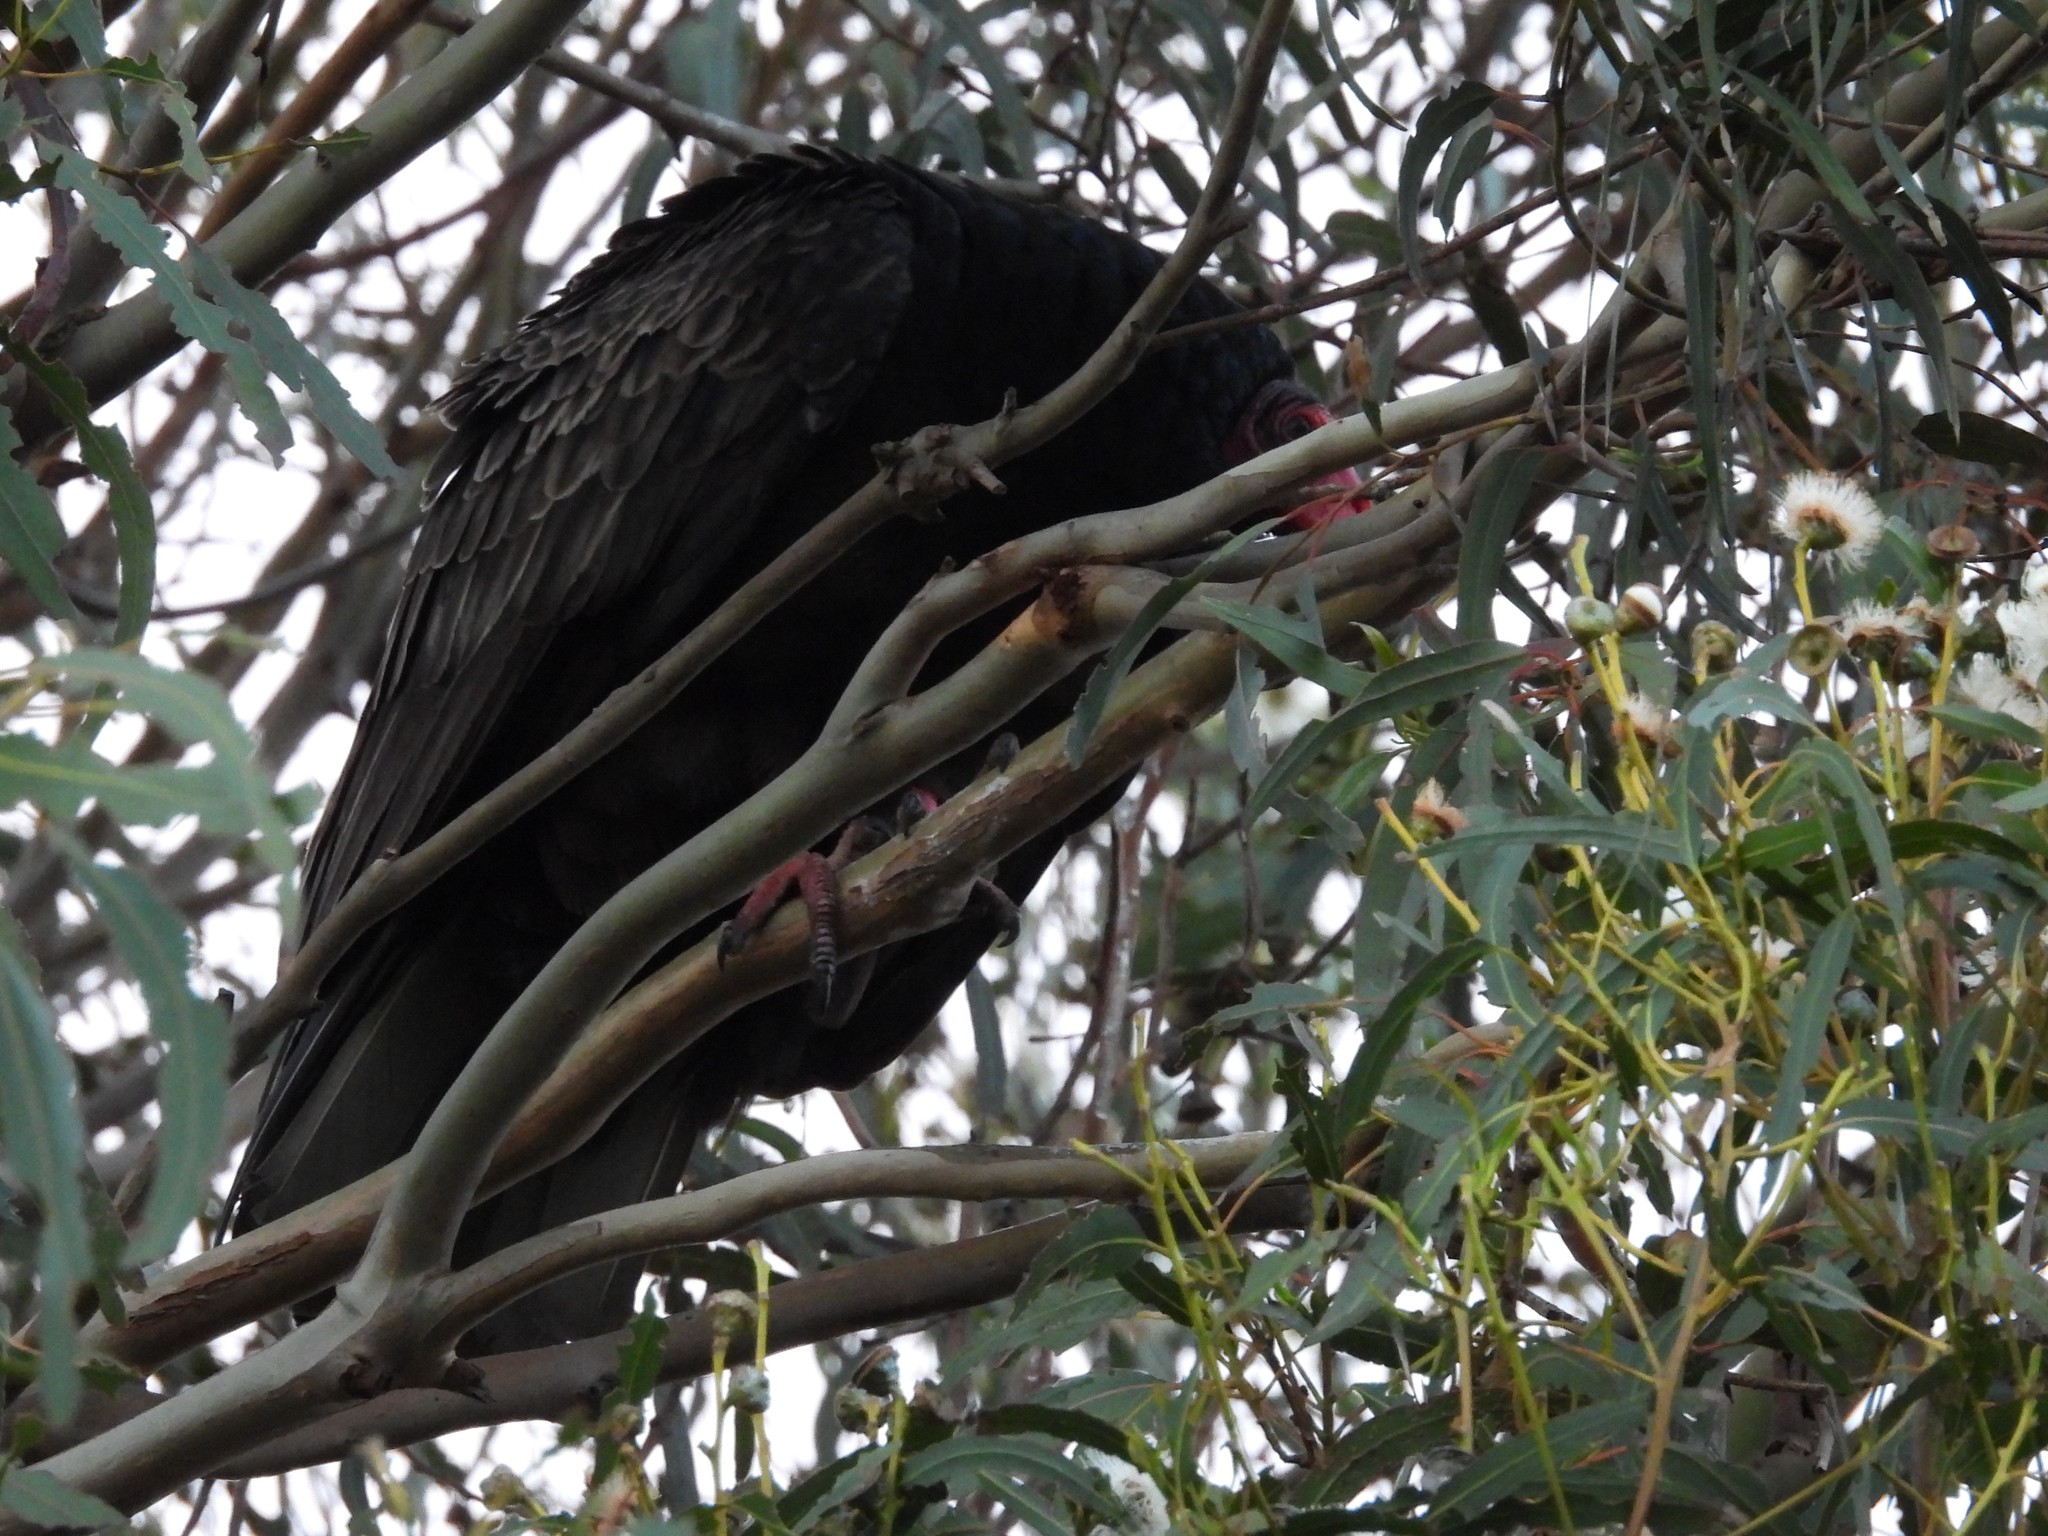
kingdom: Animalia
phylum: Chordata
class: Aves
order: Accipitriformes
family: Cathartidae
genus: Cathartes
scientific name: Cathartes aura
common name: Turkey vulture
